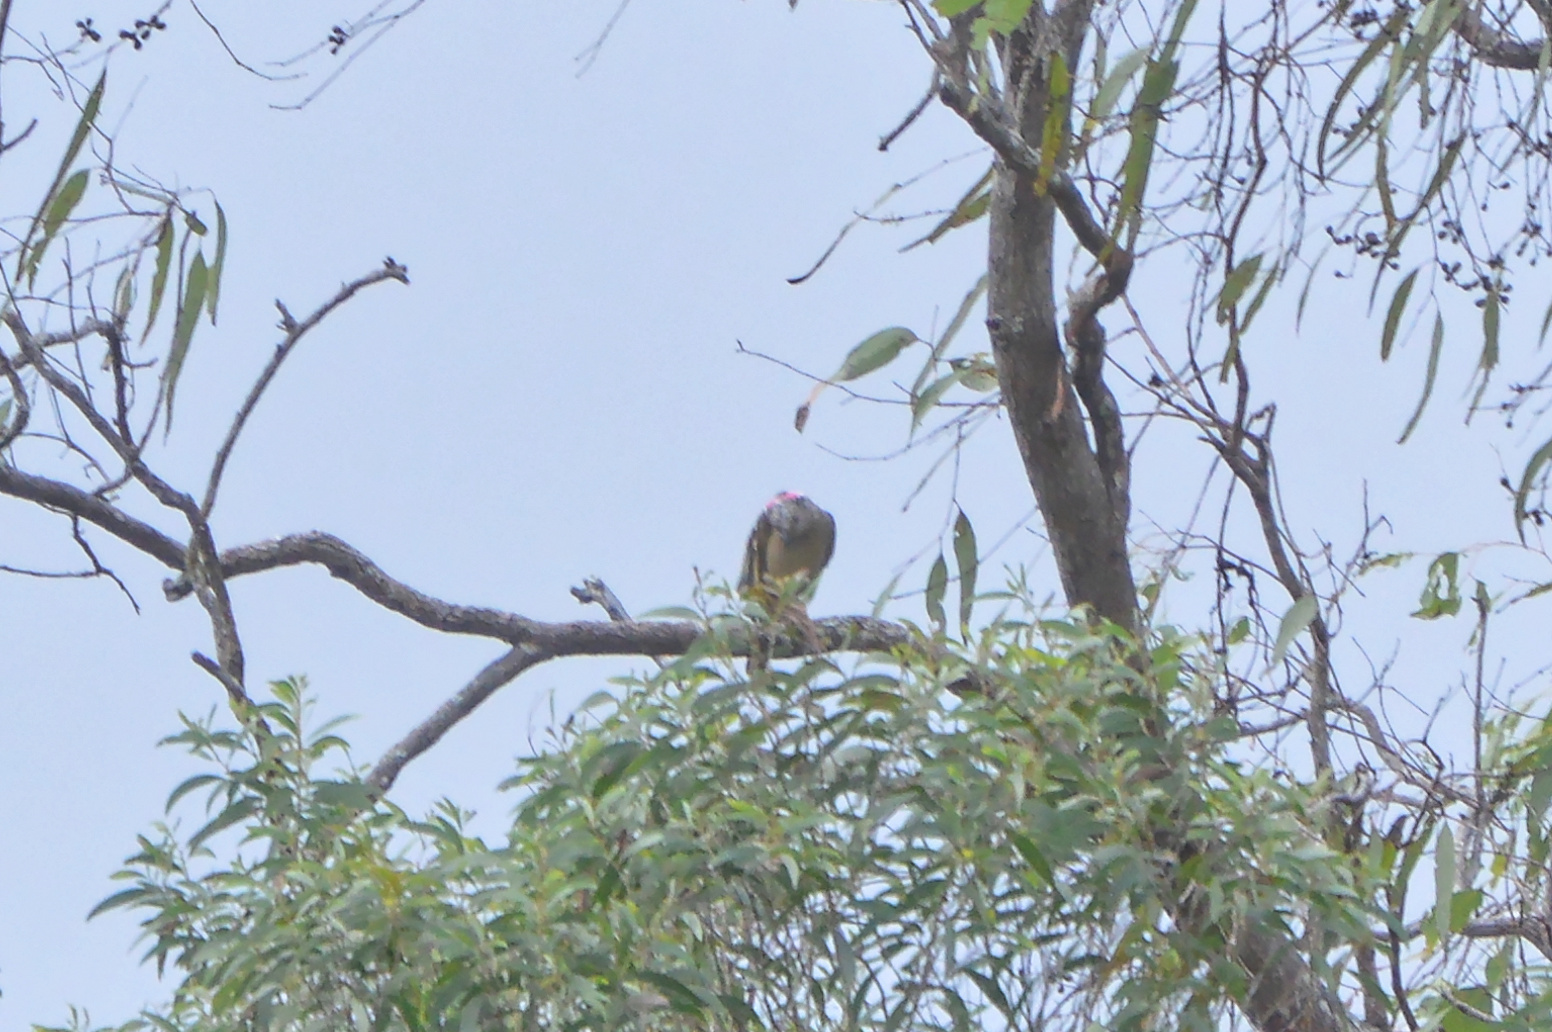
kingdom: Animalia
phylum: Chordata
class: Aves
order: Passeriformes
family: Ptilonorhynchidae
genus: Chlamydera
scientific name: Chlamydera nuchalis
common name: Great bowerbird
